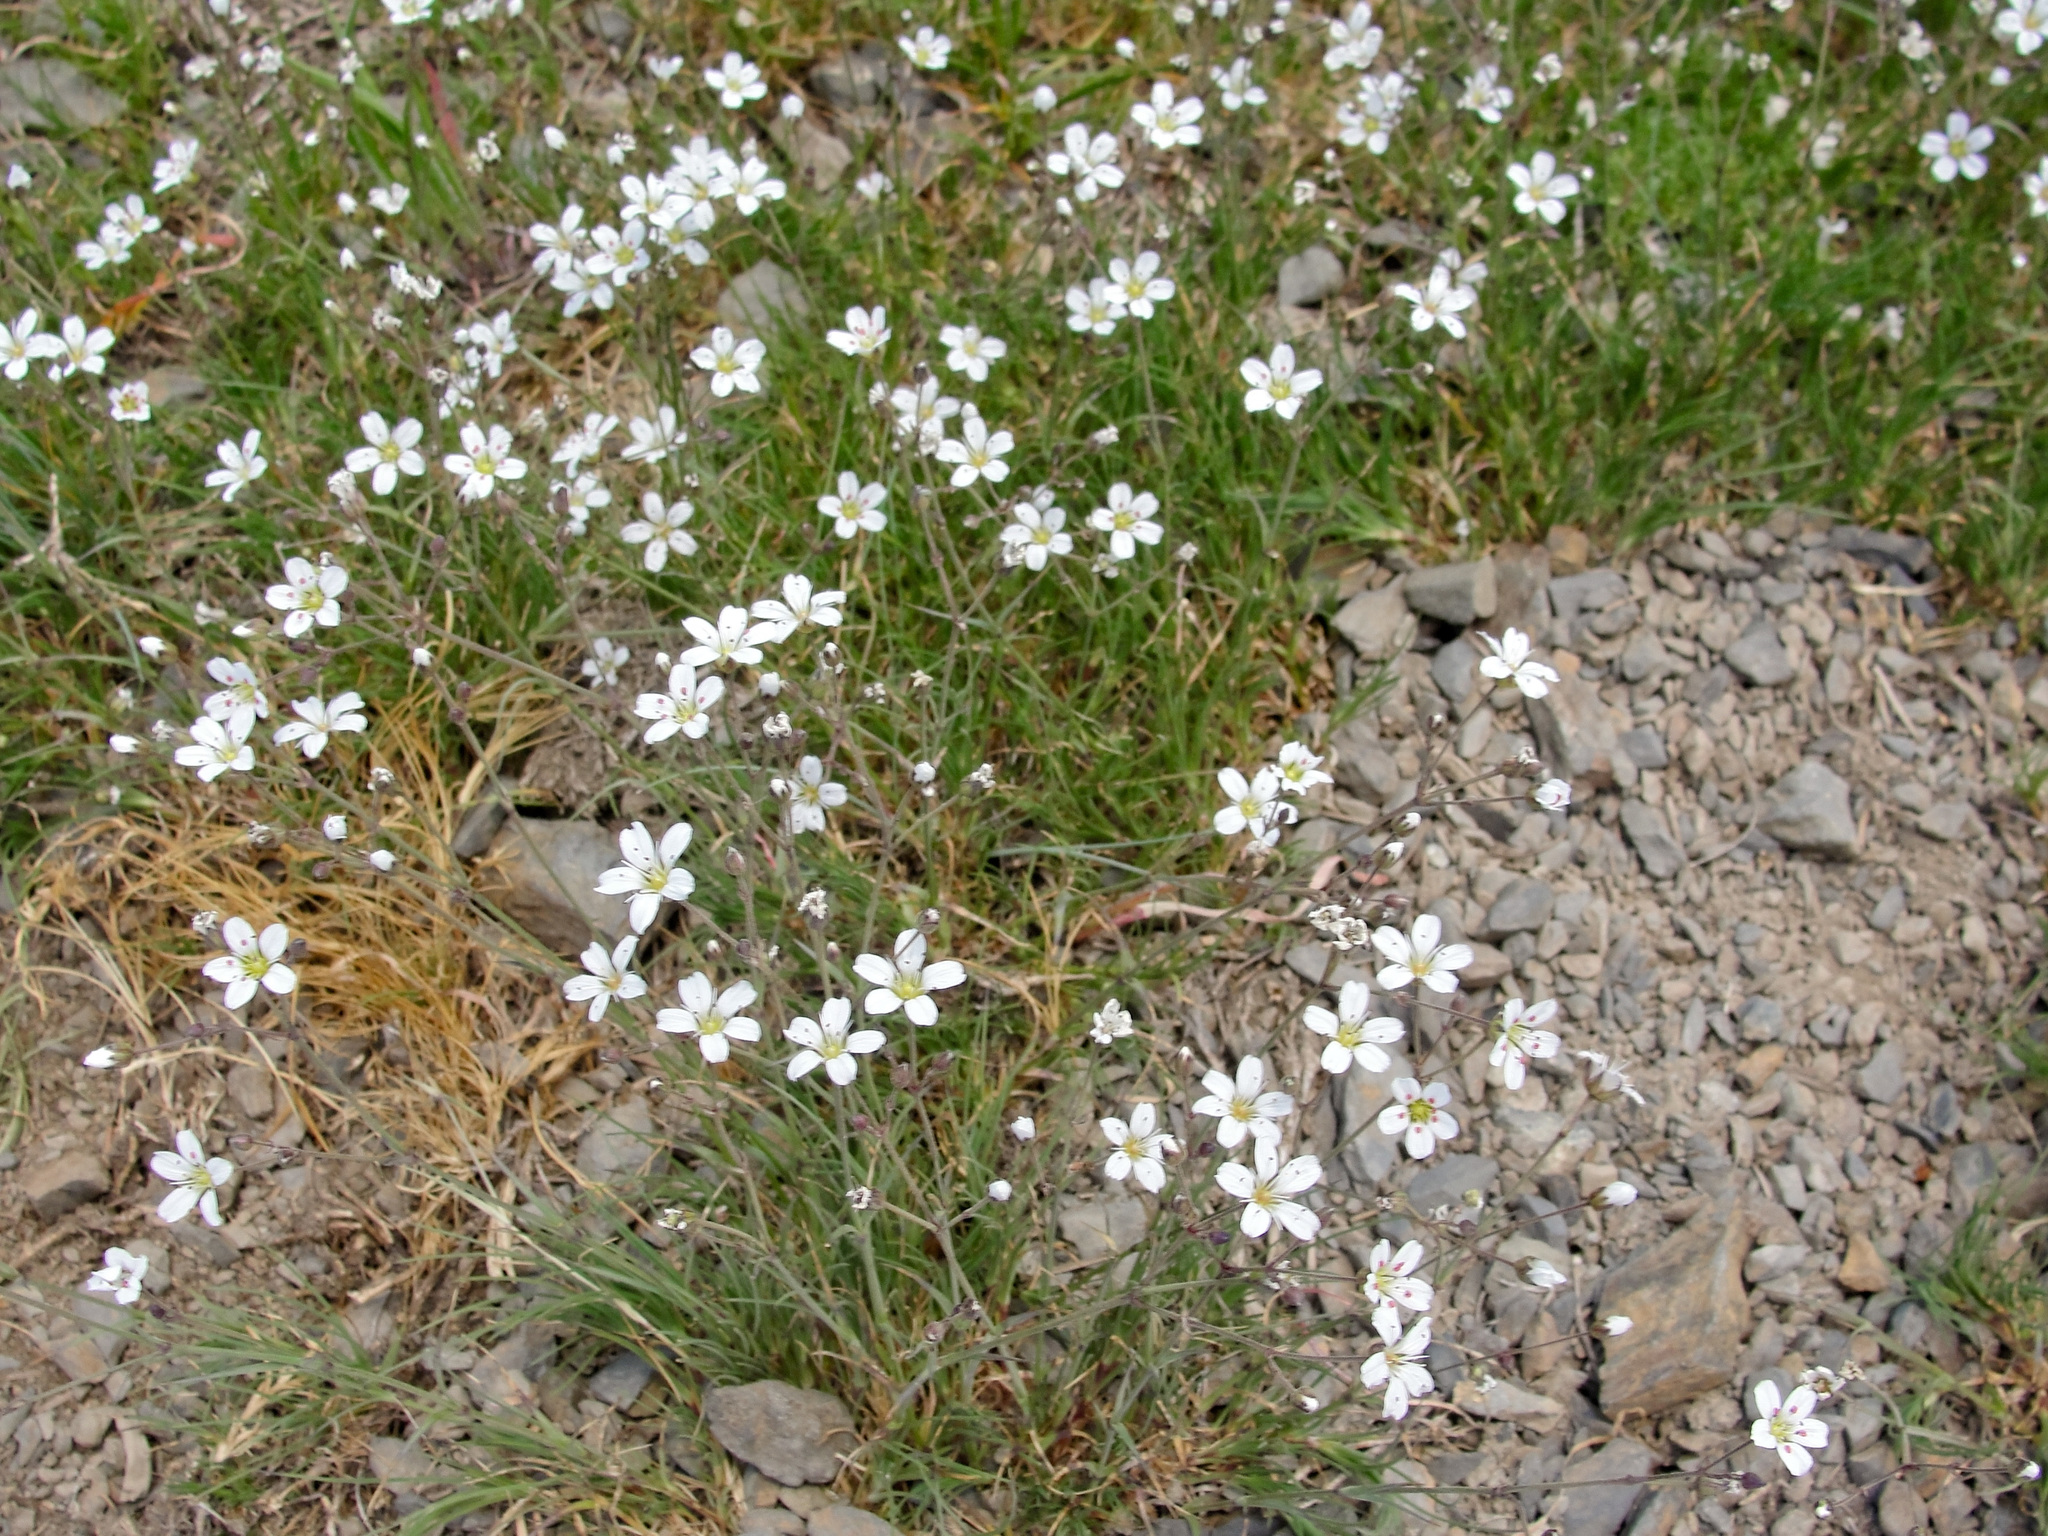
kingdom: Plantae
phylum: Tracheophyta
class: Magnoliopsida
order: Caryophyllales
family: Caryophyllaceae
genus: Eremogone
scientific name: Eremogone capillaris
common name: Slender mountain sandwort
